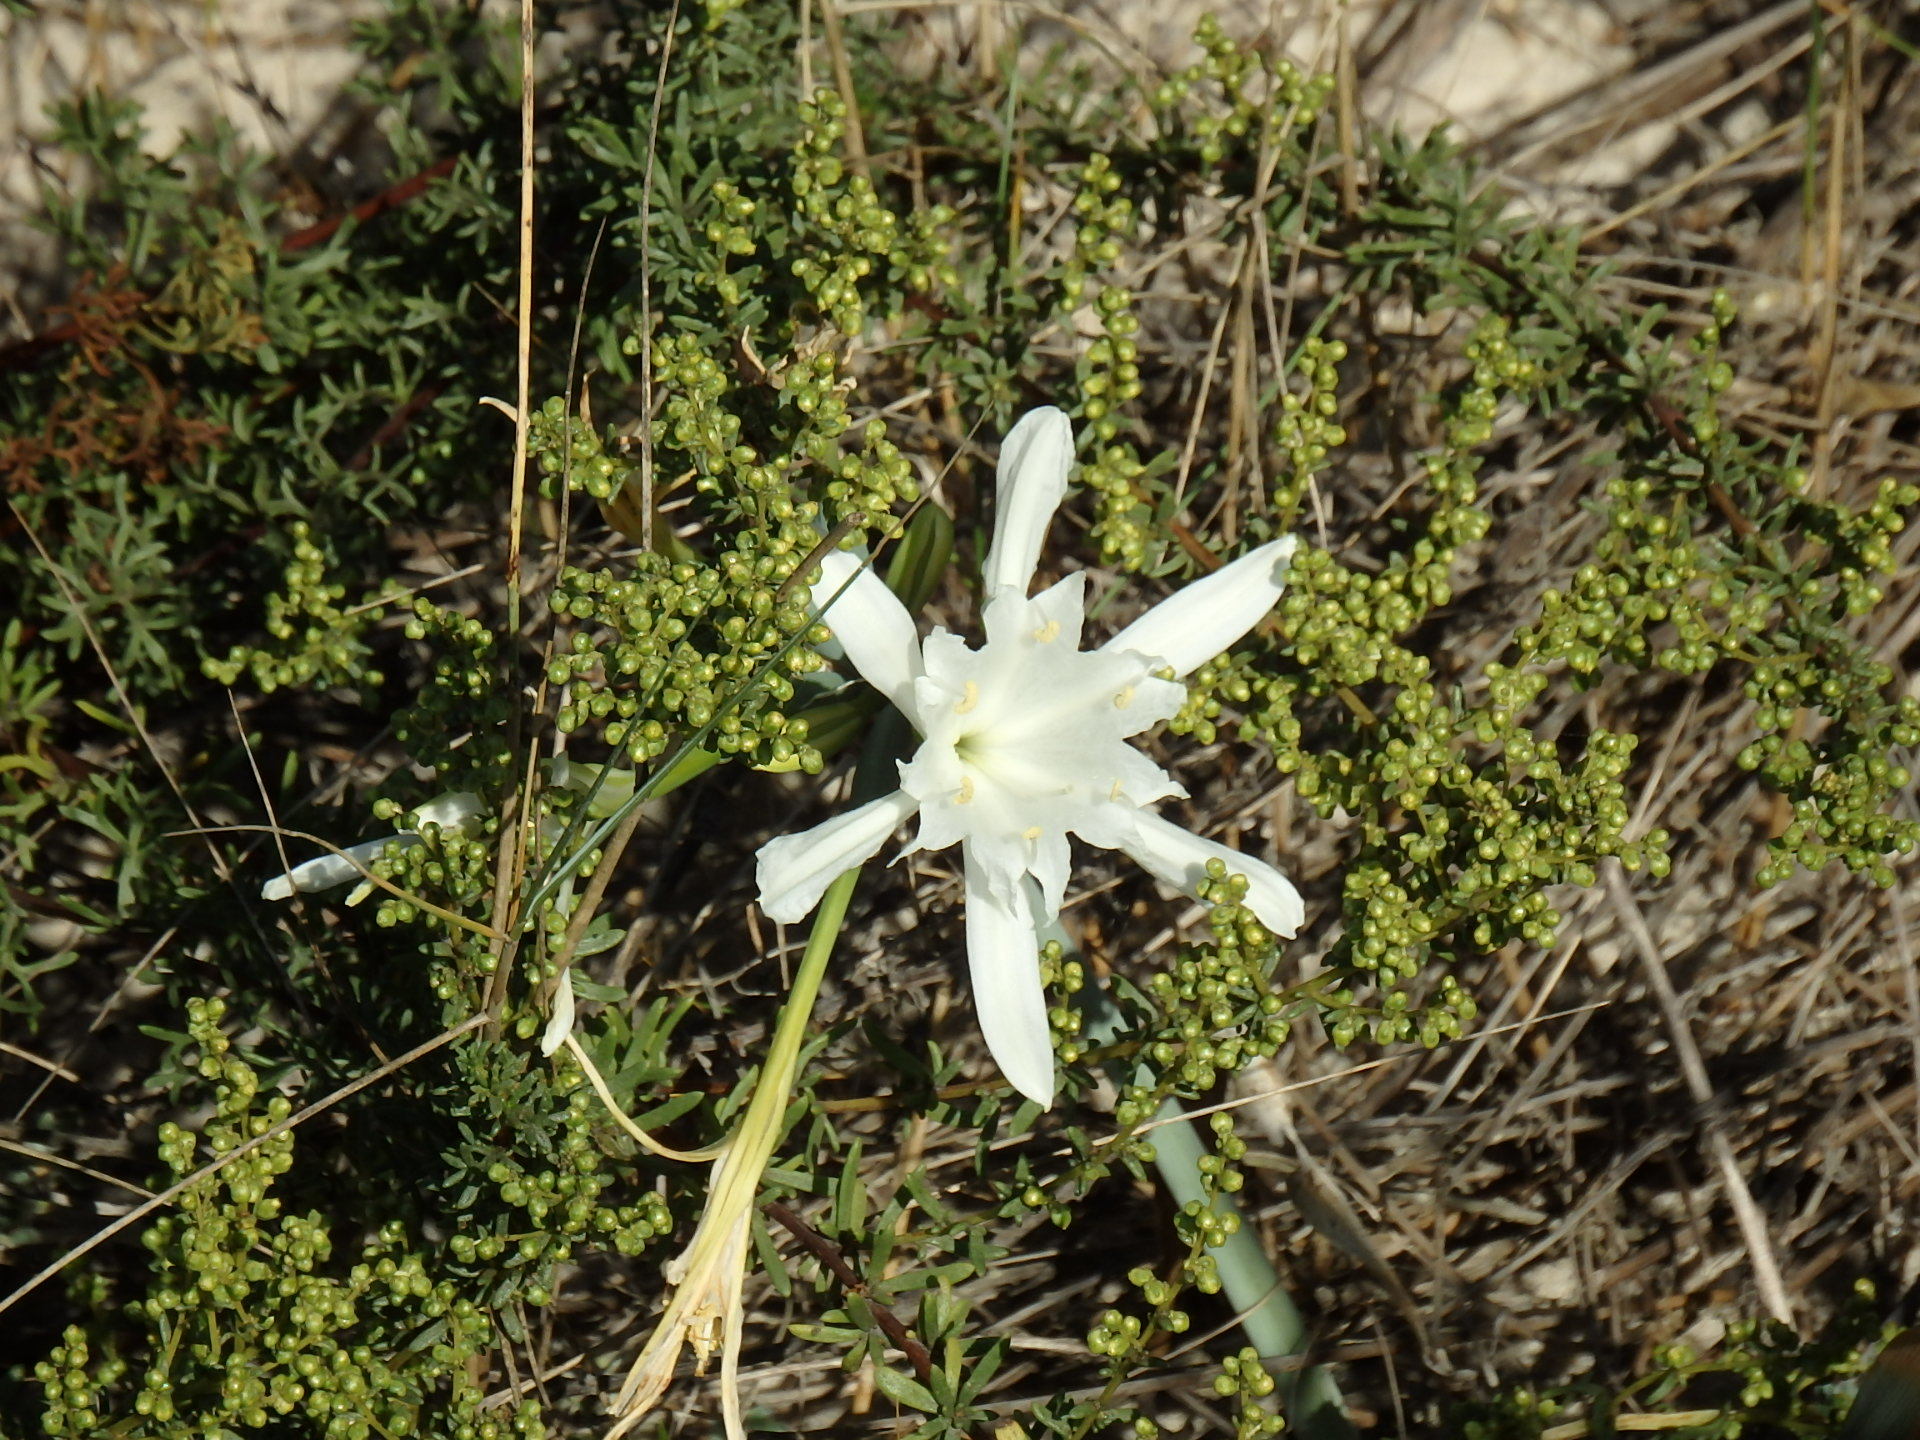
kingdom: Plantae
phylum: Tracheophyta
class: Liliopsida
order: Asparagales
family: Amaryllidaceae
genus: Pancratium
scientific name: Pancratium maritimum
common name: Sea-daffodil
